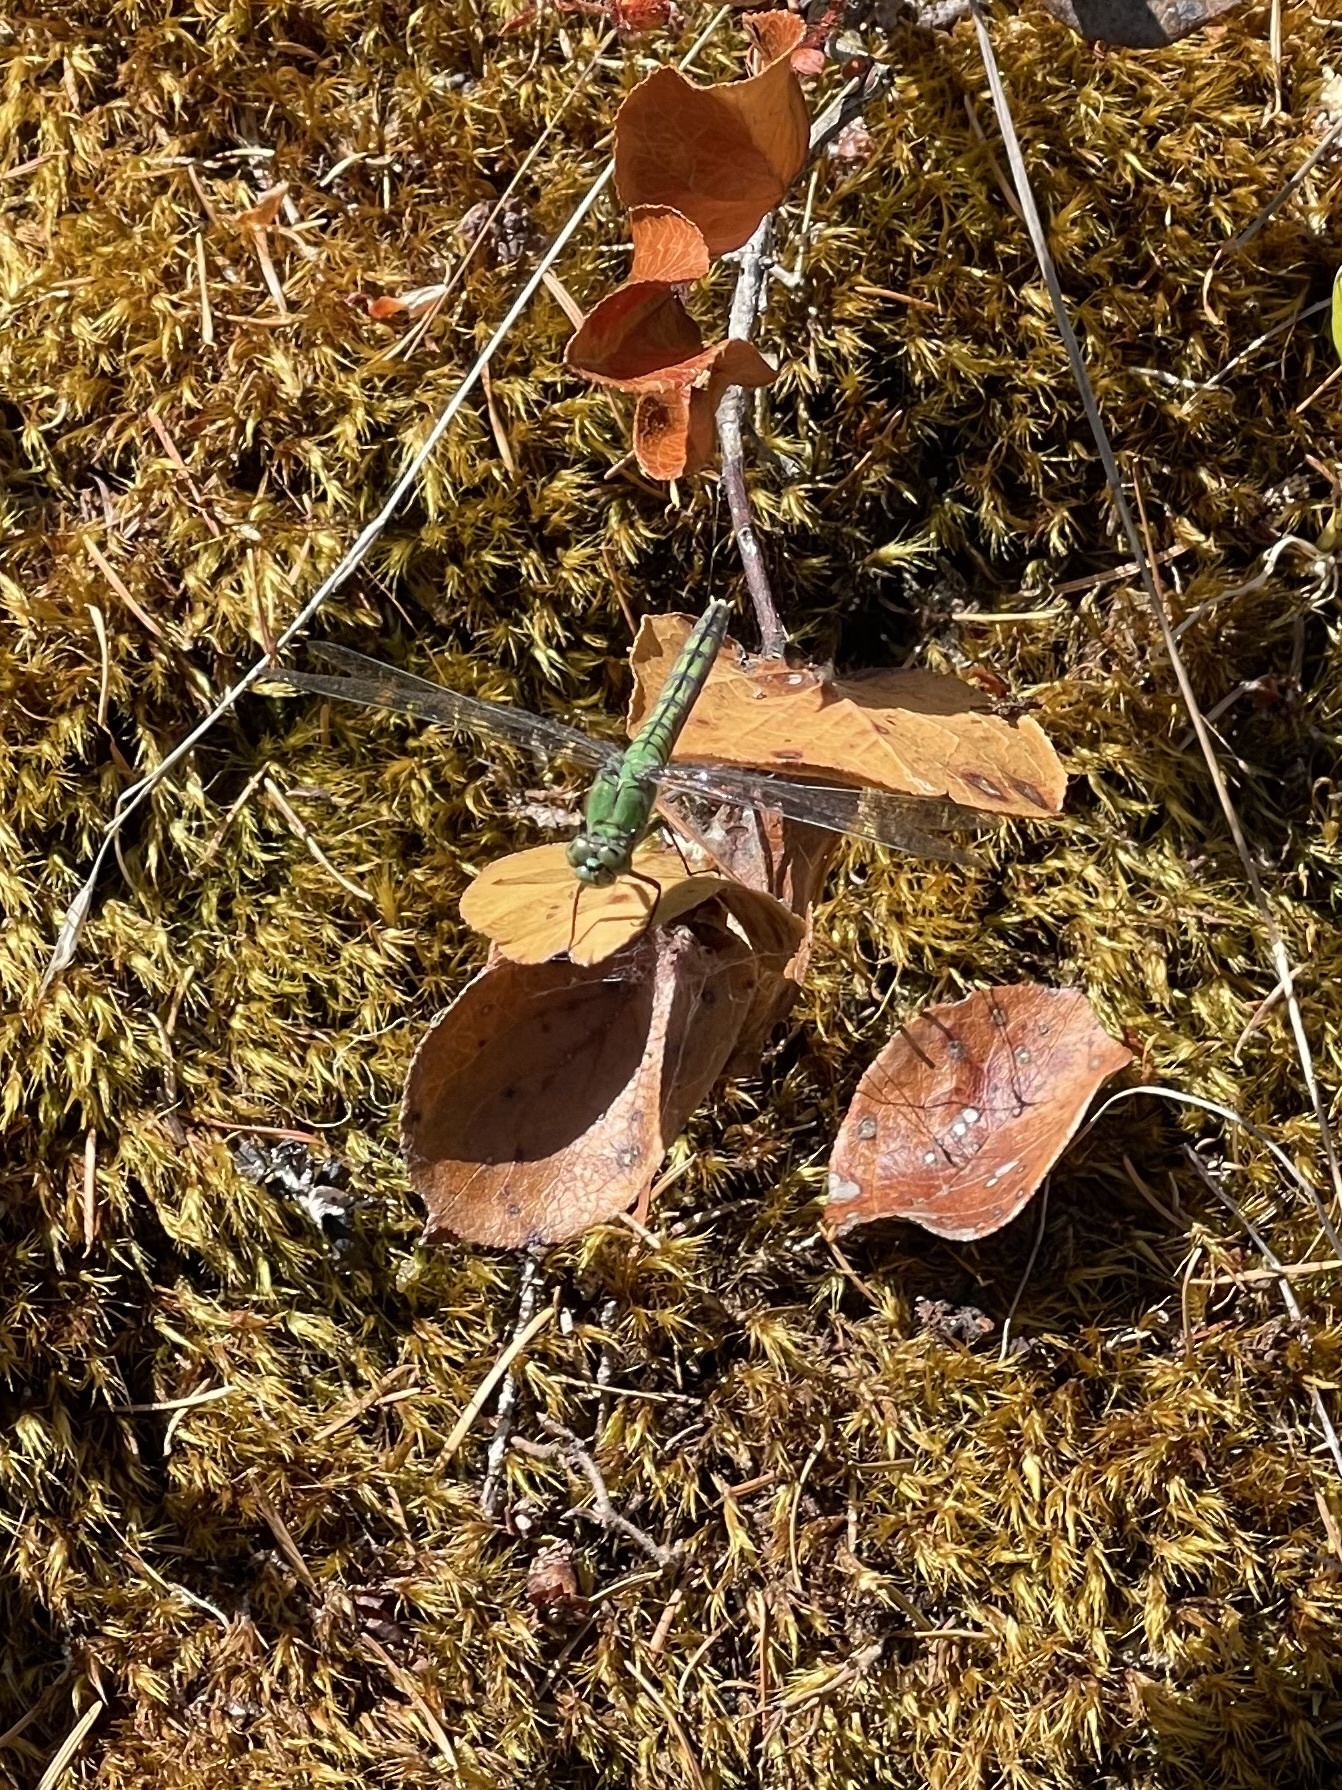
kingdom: Animalia
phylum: Arthropoda
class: Insecta
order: Odonata
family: Libellulidae
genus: Erythemis
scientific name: Erythemis collocata
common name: Western pondhawk
